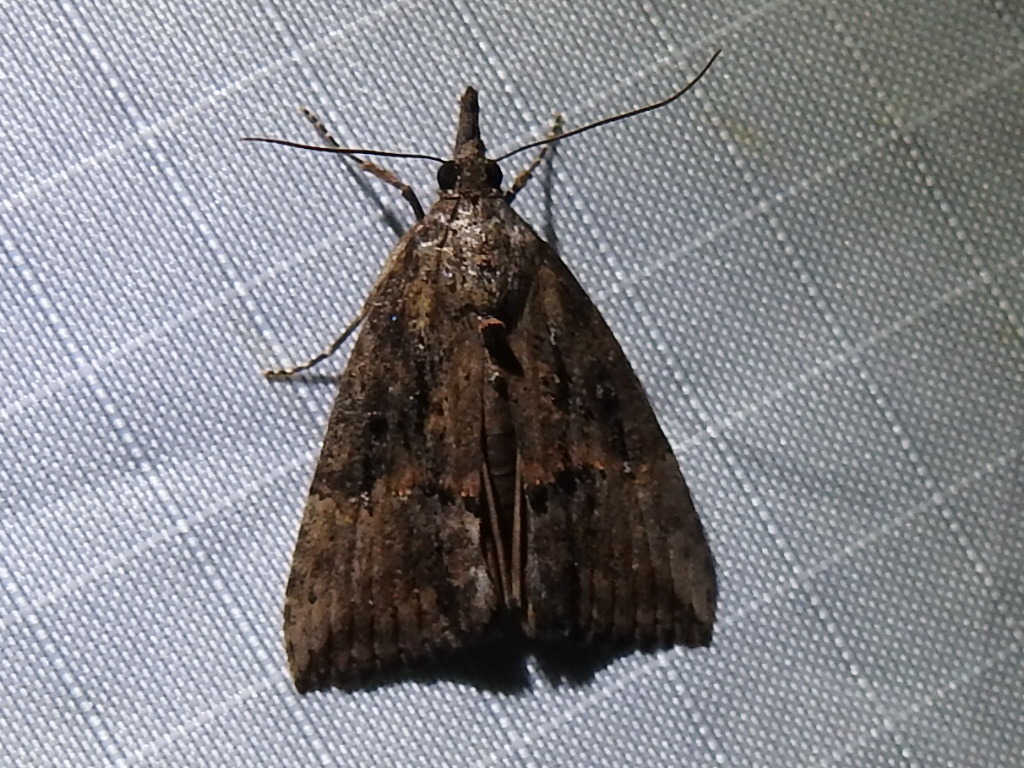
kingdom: Animalia
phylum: Arthropoda
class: Insecta
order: Lepidoptera
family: Erebidae
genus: Hypena
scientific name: Hypena scabra
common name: Green cloverworm
